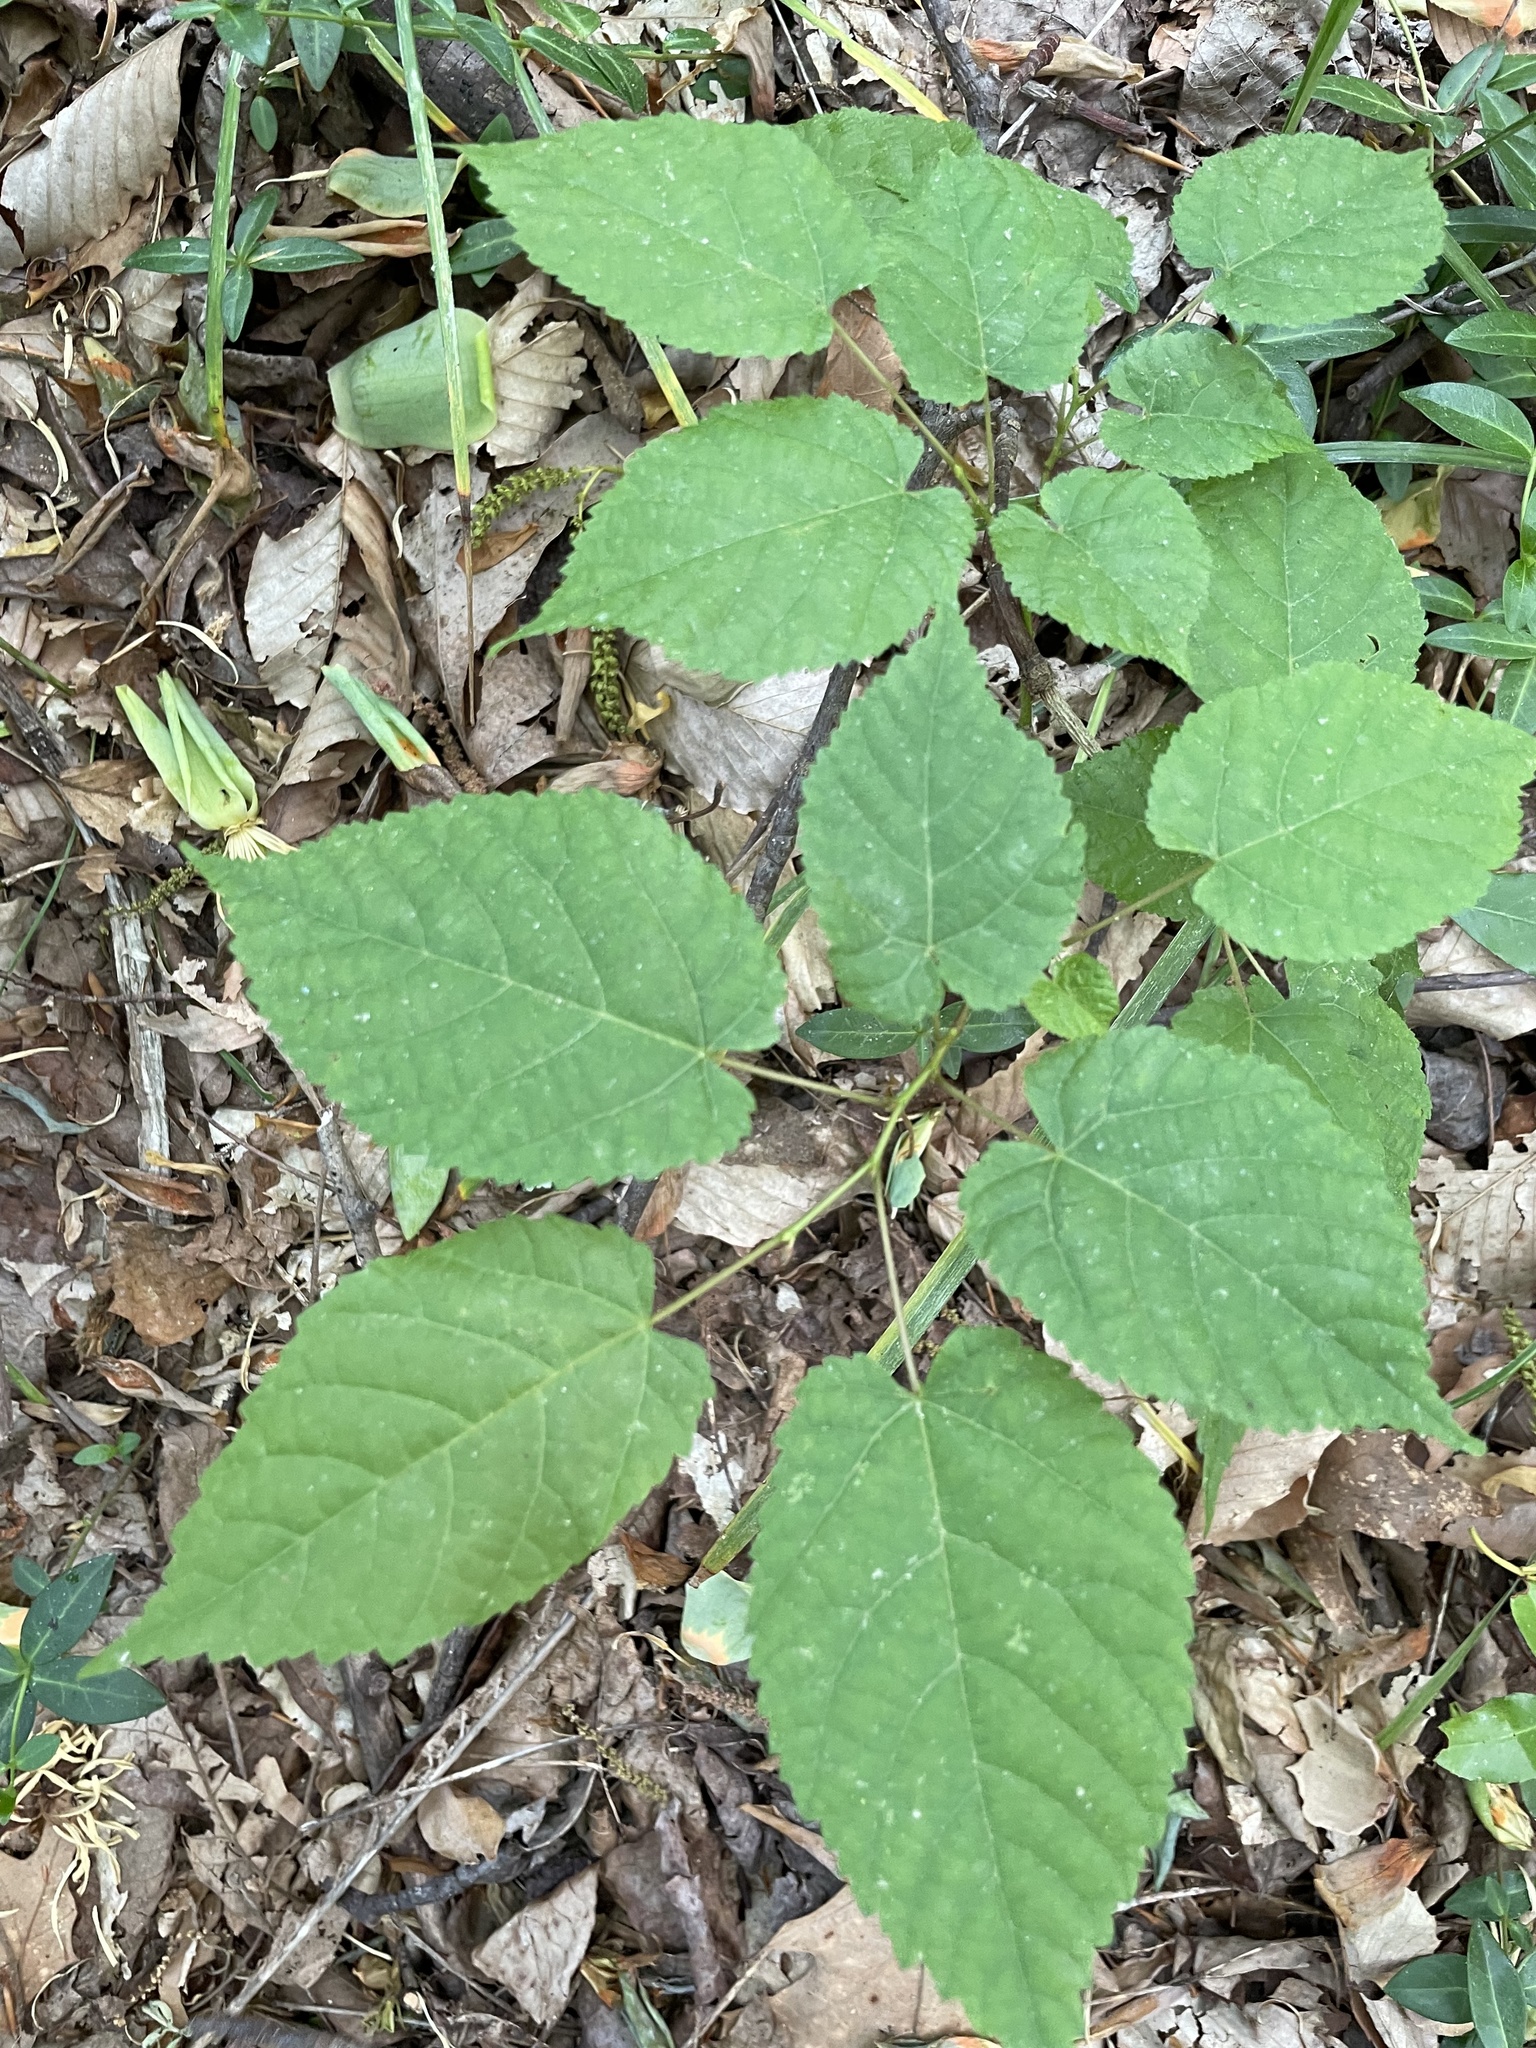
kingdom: Plantae
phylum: Tracheophyta
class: Magnoliopsida
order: Malvales
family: Malvaceae
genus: Tilia
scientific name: Tilia americana
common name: Basswood
